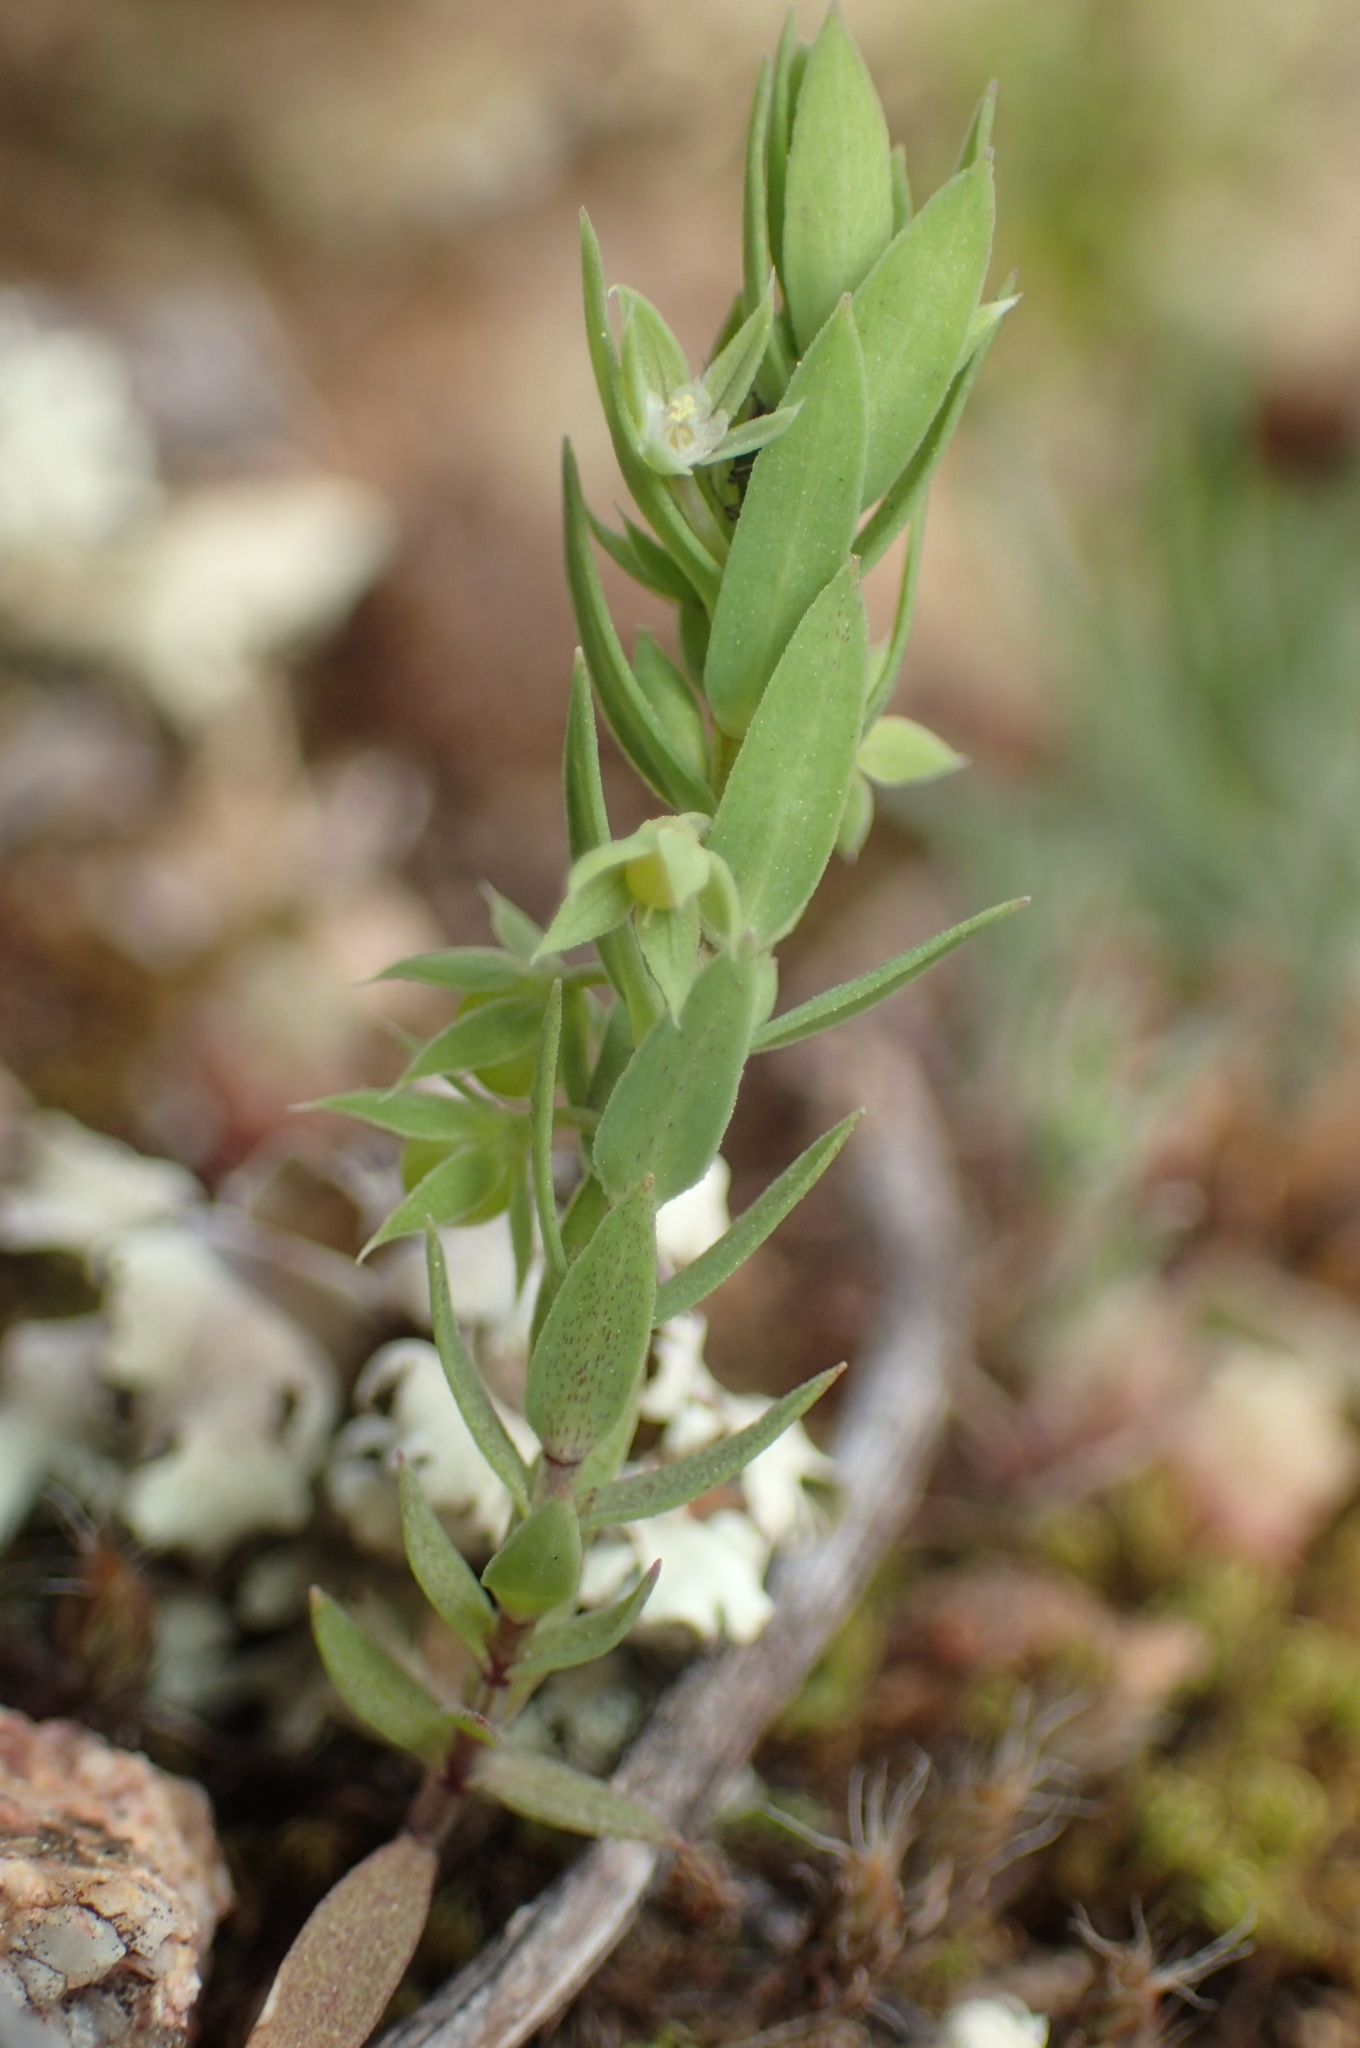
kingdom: Plantae
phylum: Tracheophyta
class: Magnoliopsida
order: Ericales
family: Primulaceae
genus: Lysimachia
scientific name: Lysimachia linum-stellatum
